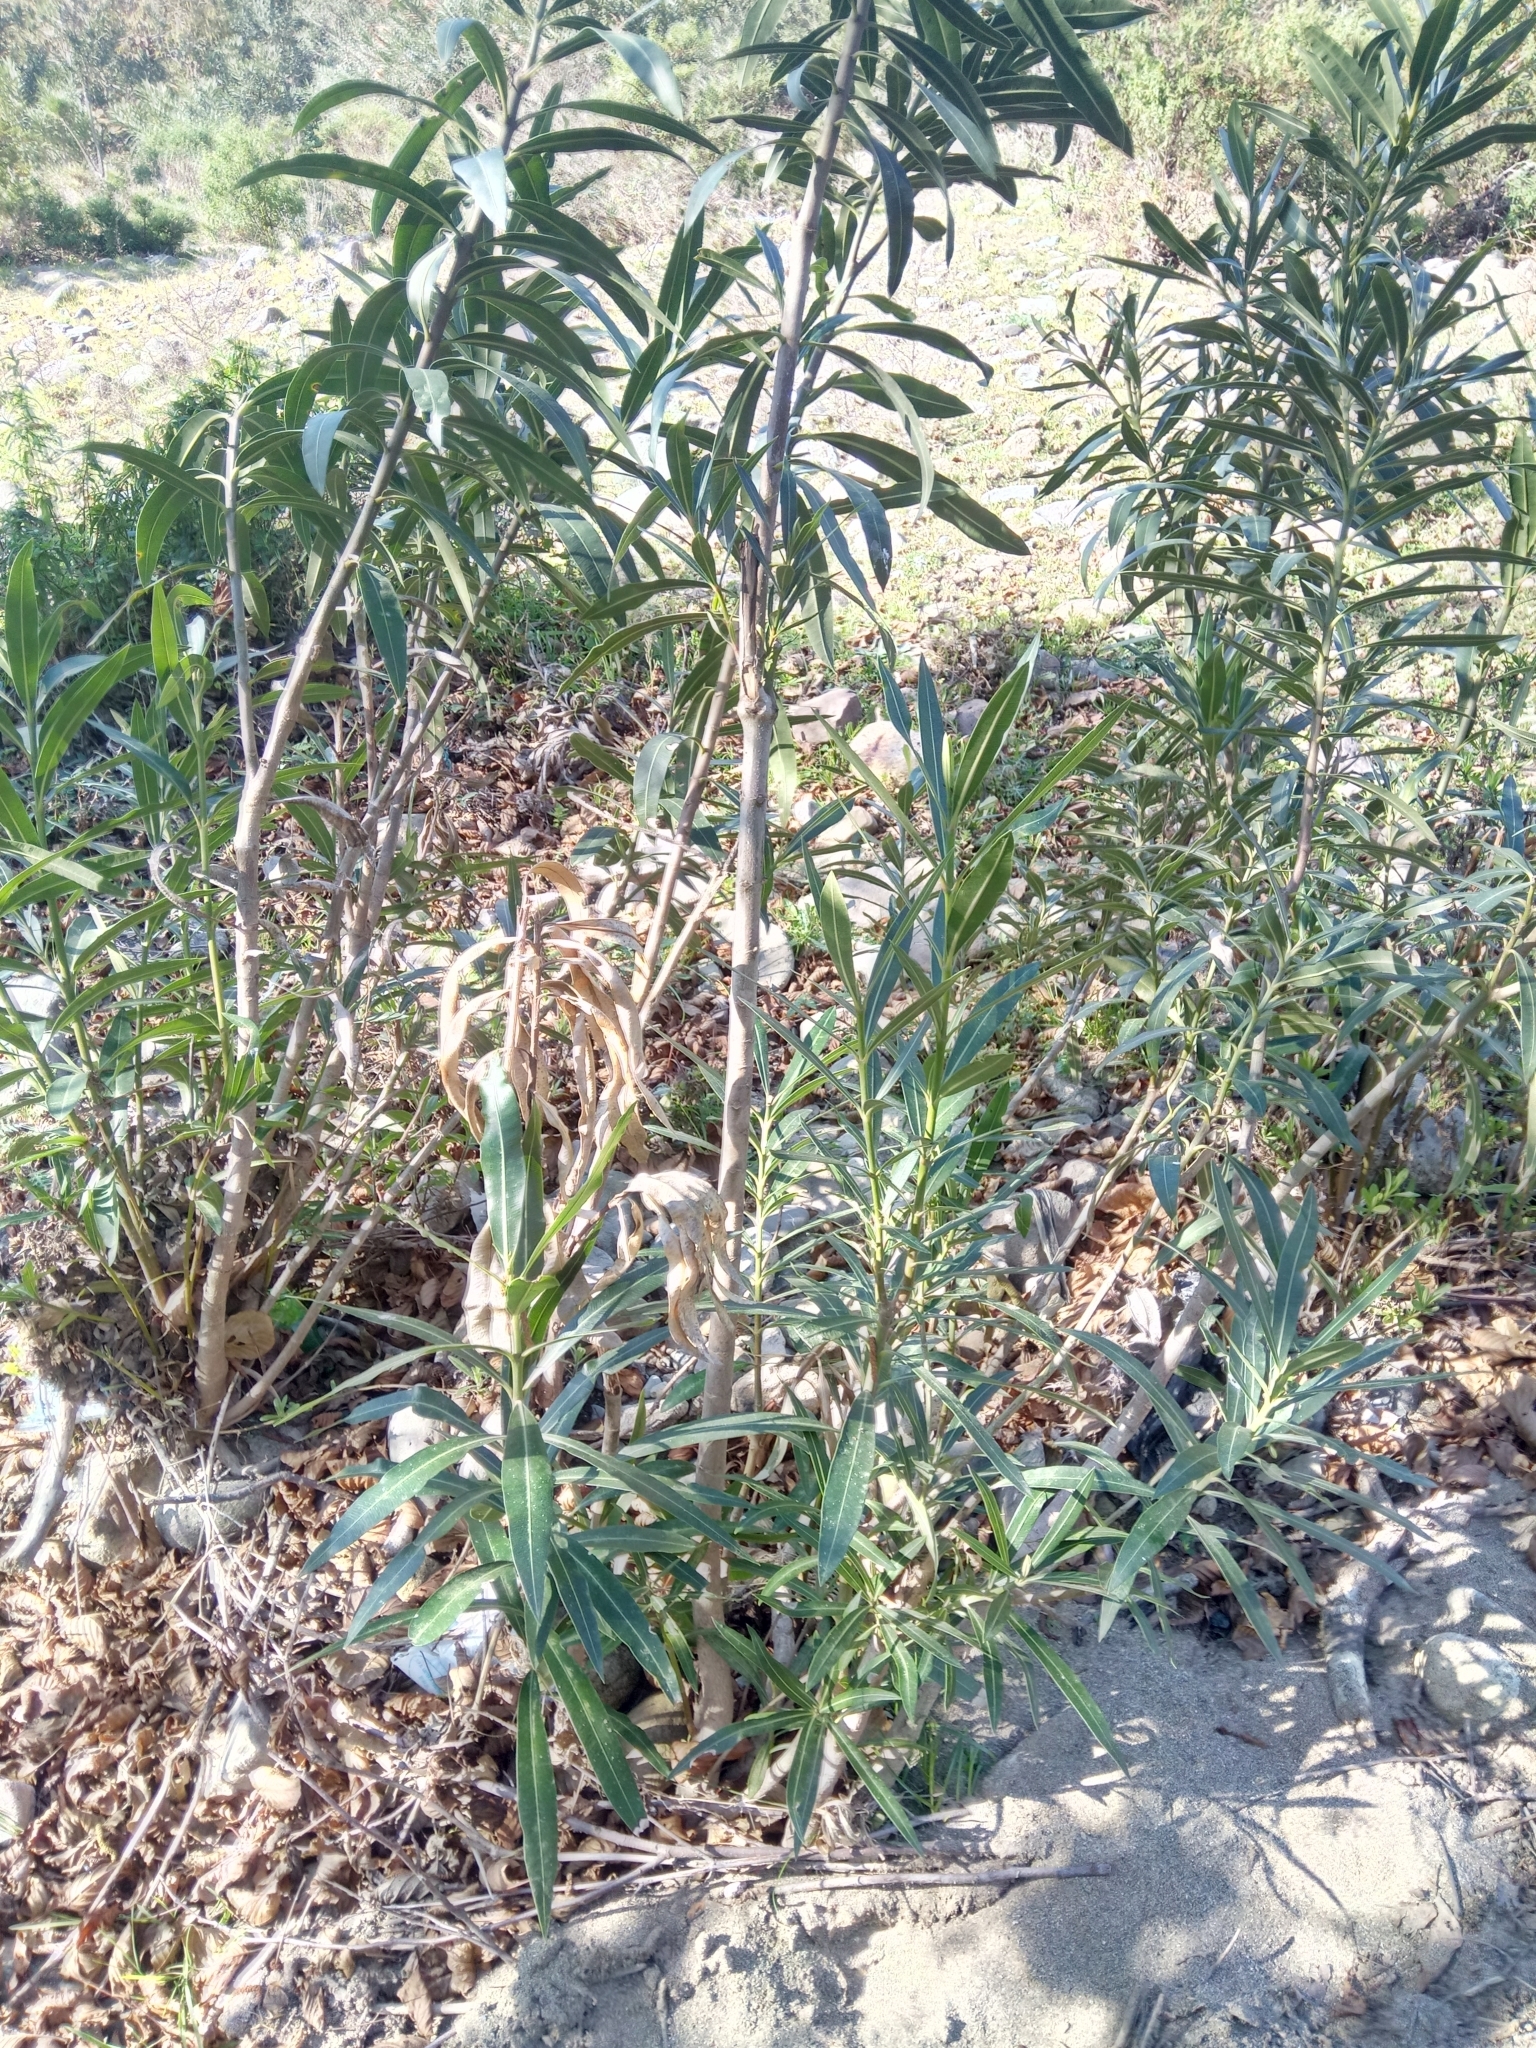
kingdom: Plantae
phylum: Tracheophyta
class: Magnoliopsida
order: Gentianales
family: Apocynaceae
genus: Nerium
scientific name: Nerium oleander
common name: Oleander
